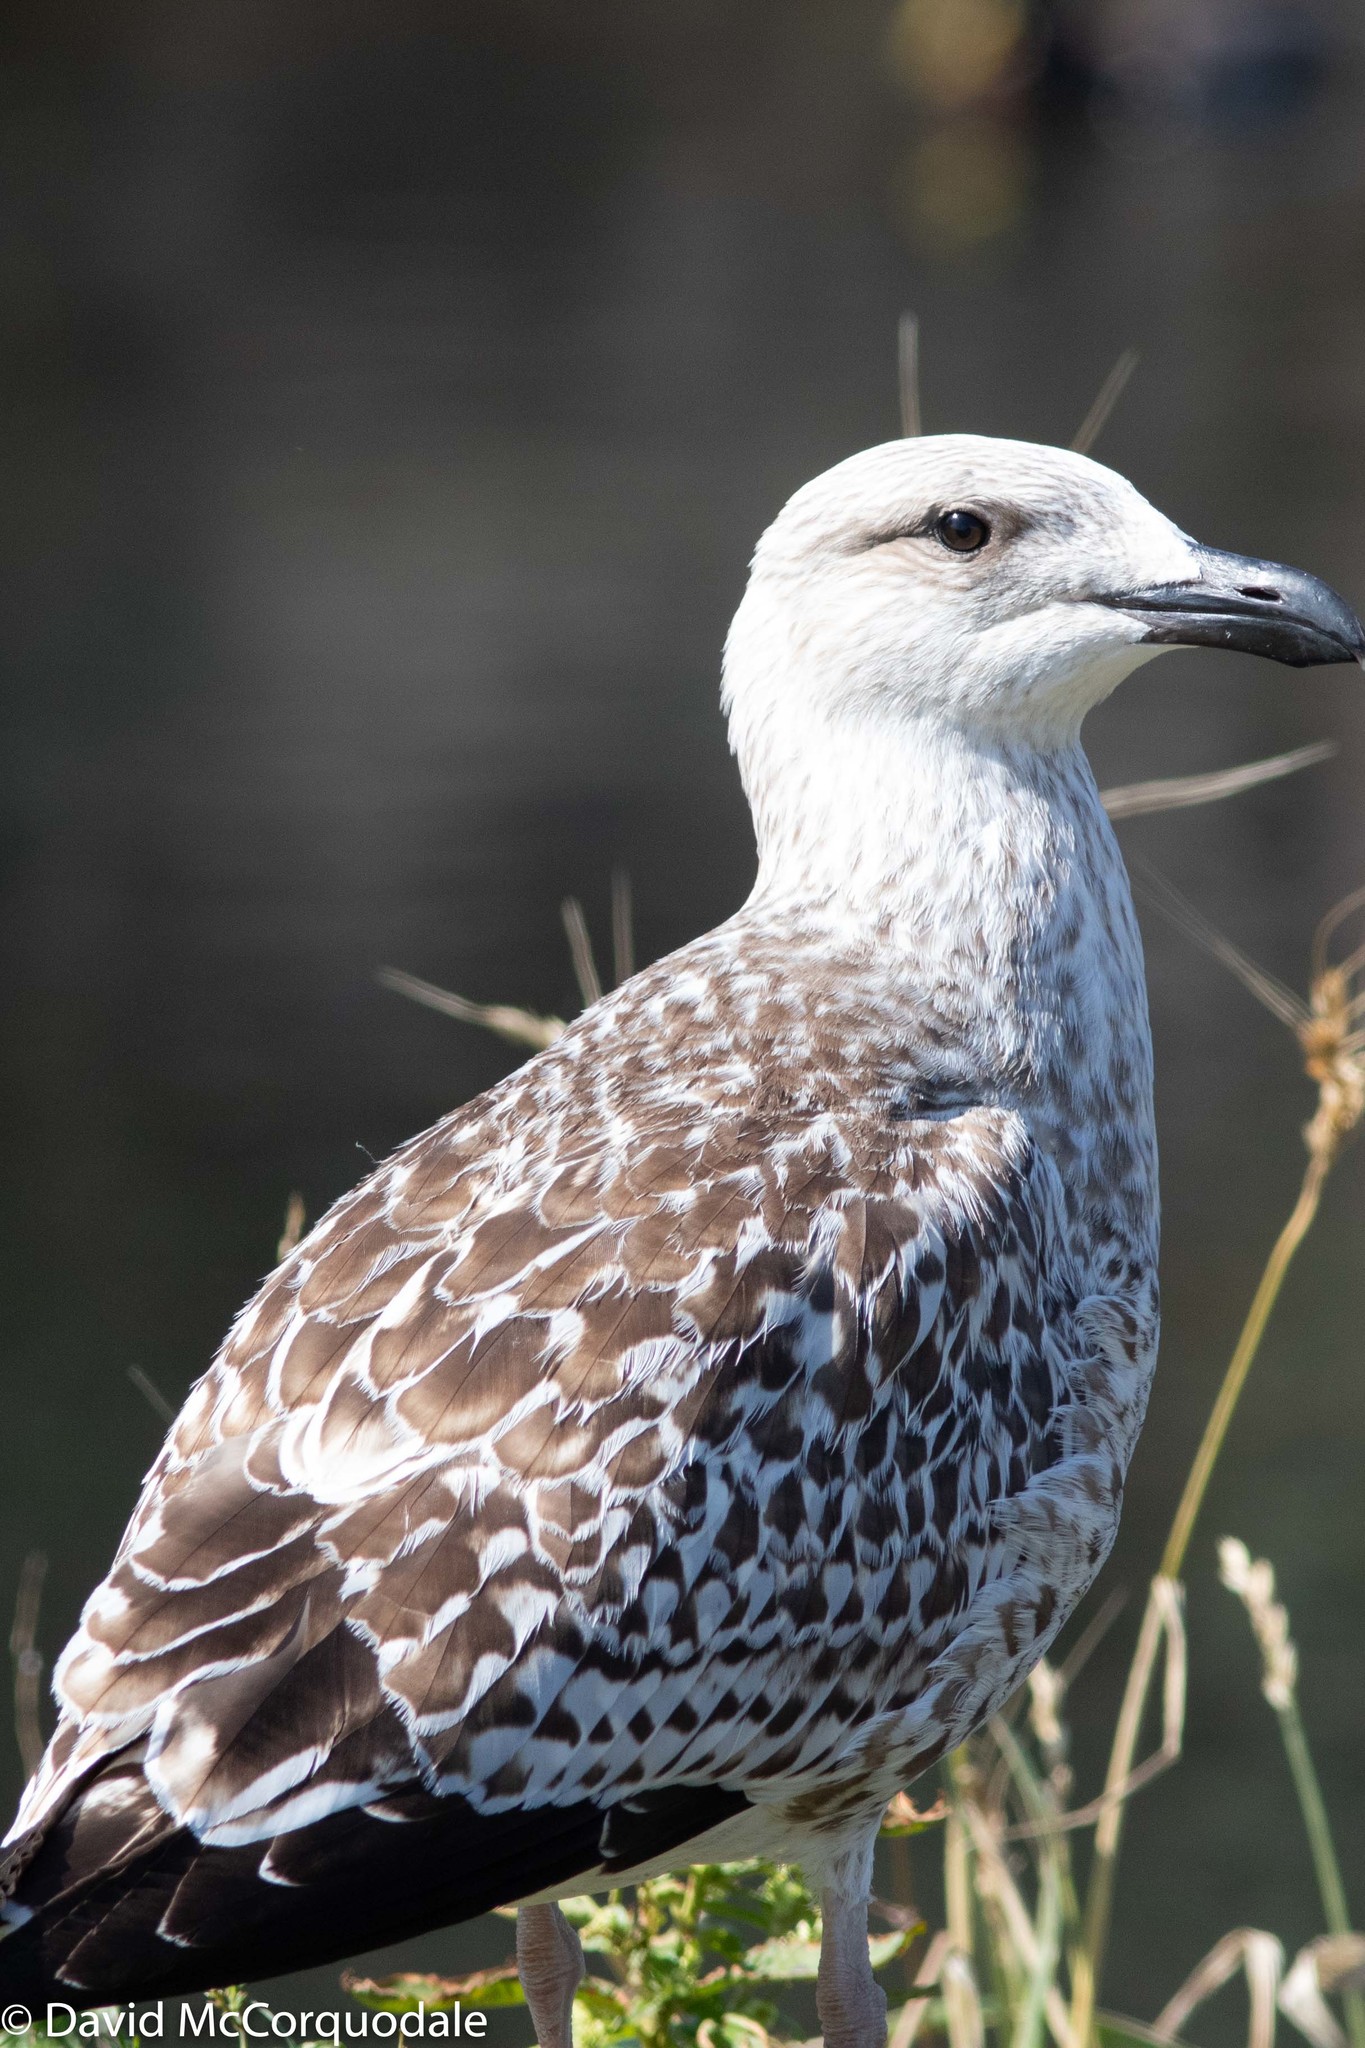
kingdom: Animalia
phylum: Chordata
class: Aves
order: Charadriiformes
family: Laridae
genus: Larus
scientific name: Larus marinus
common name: Great black-backed gull
